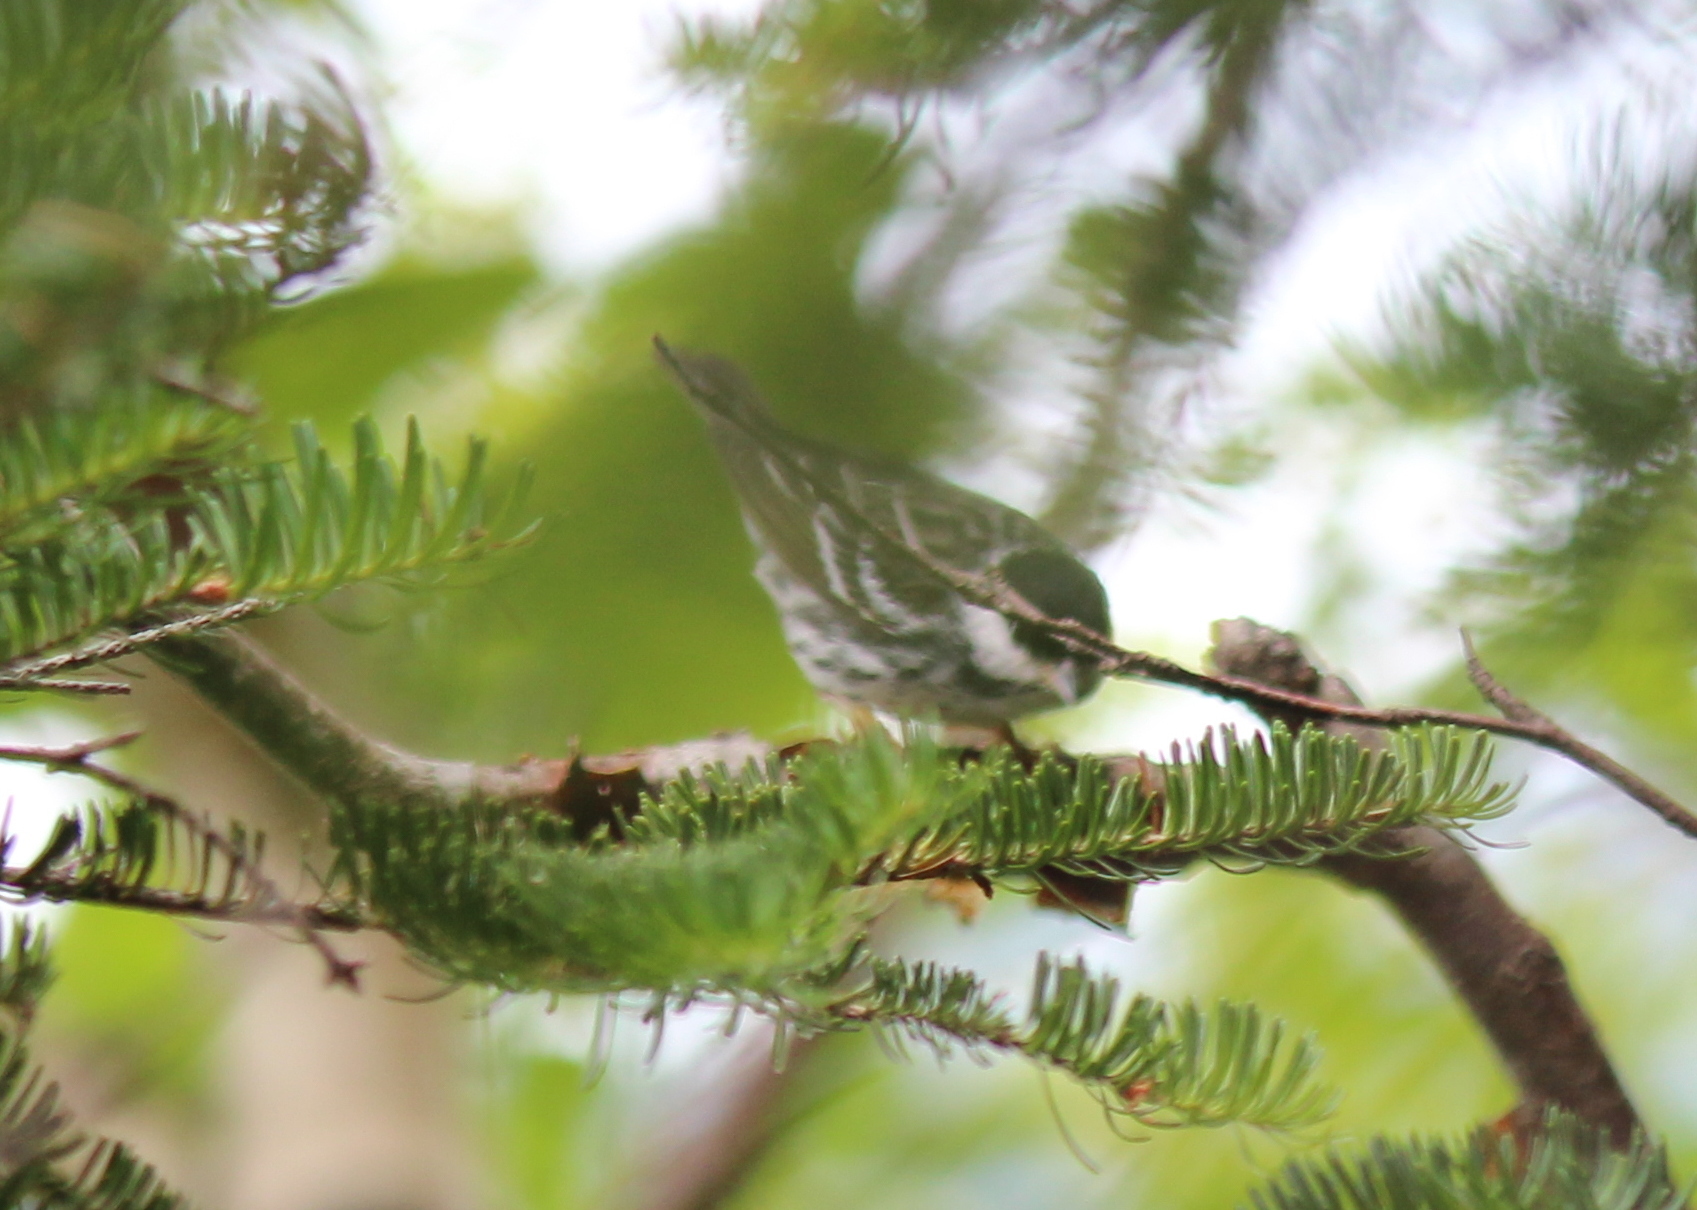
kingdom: Animalia
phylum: Chordata
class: Aves
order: Passeriformes
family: Parulidae
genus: Setophaga
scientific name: Setophaga striata
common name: Blackpoll warbler
